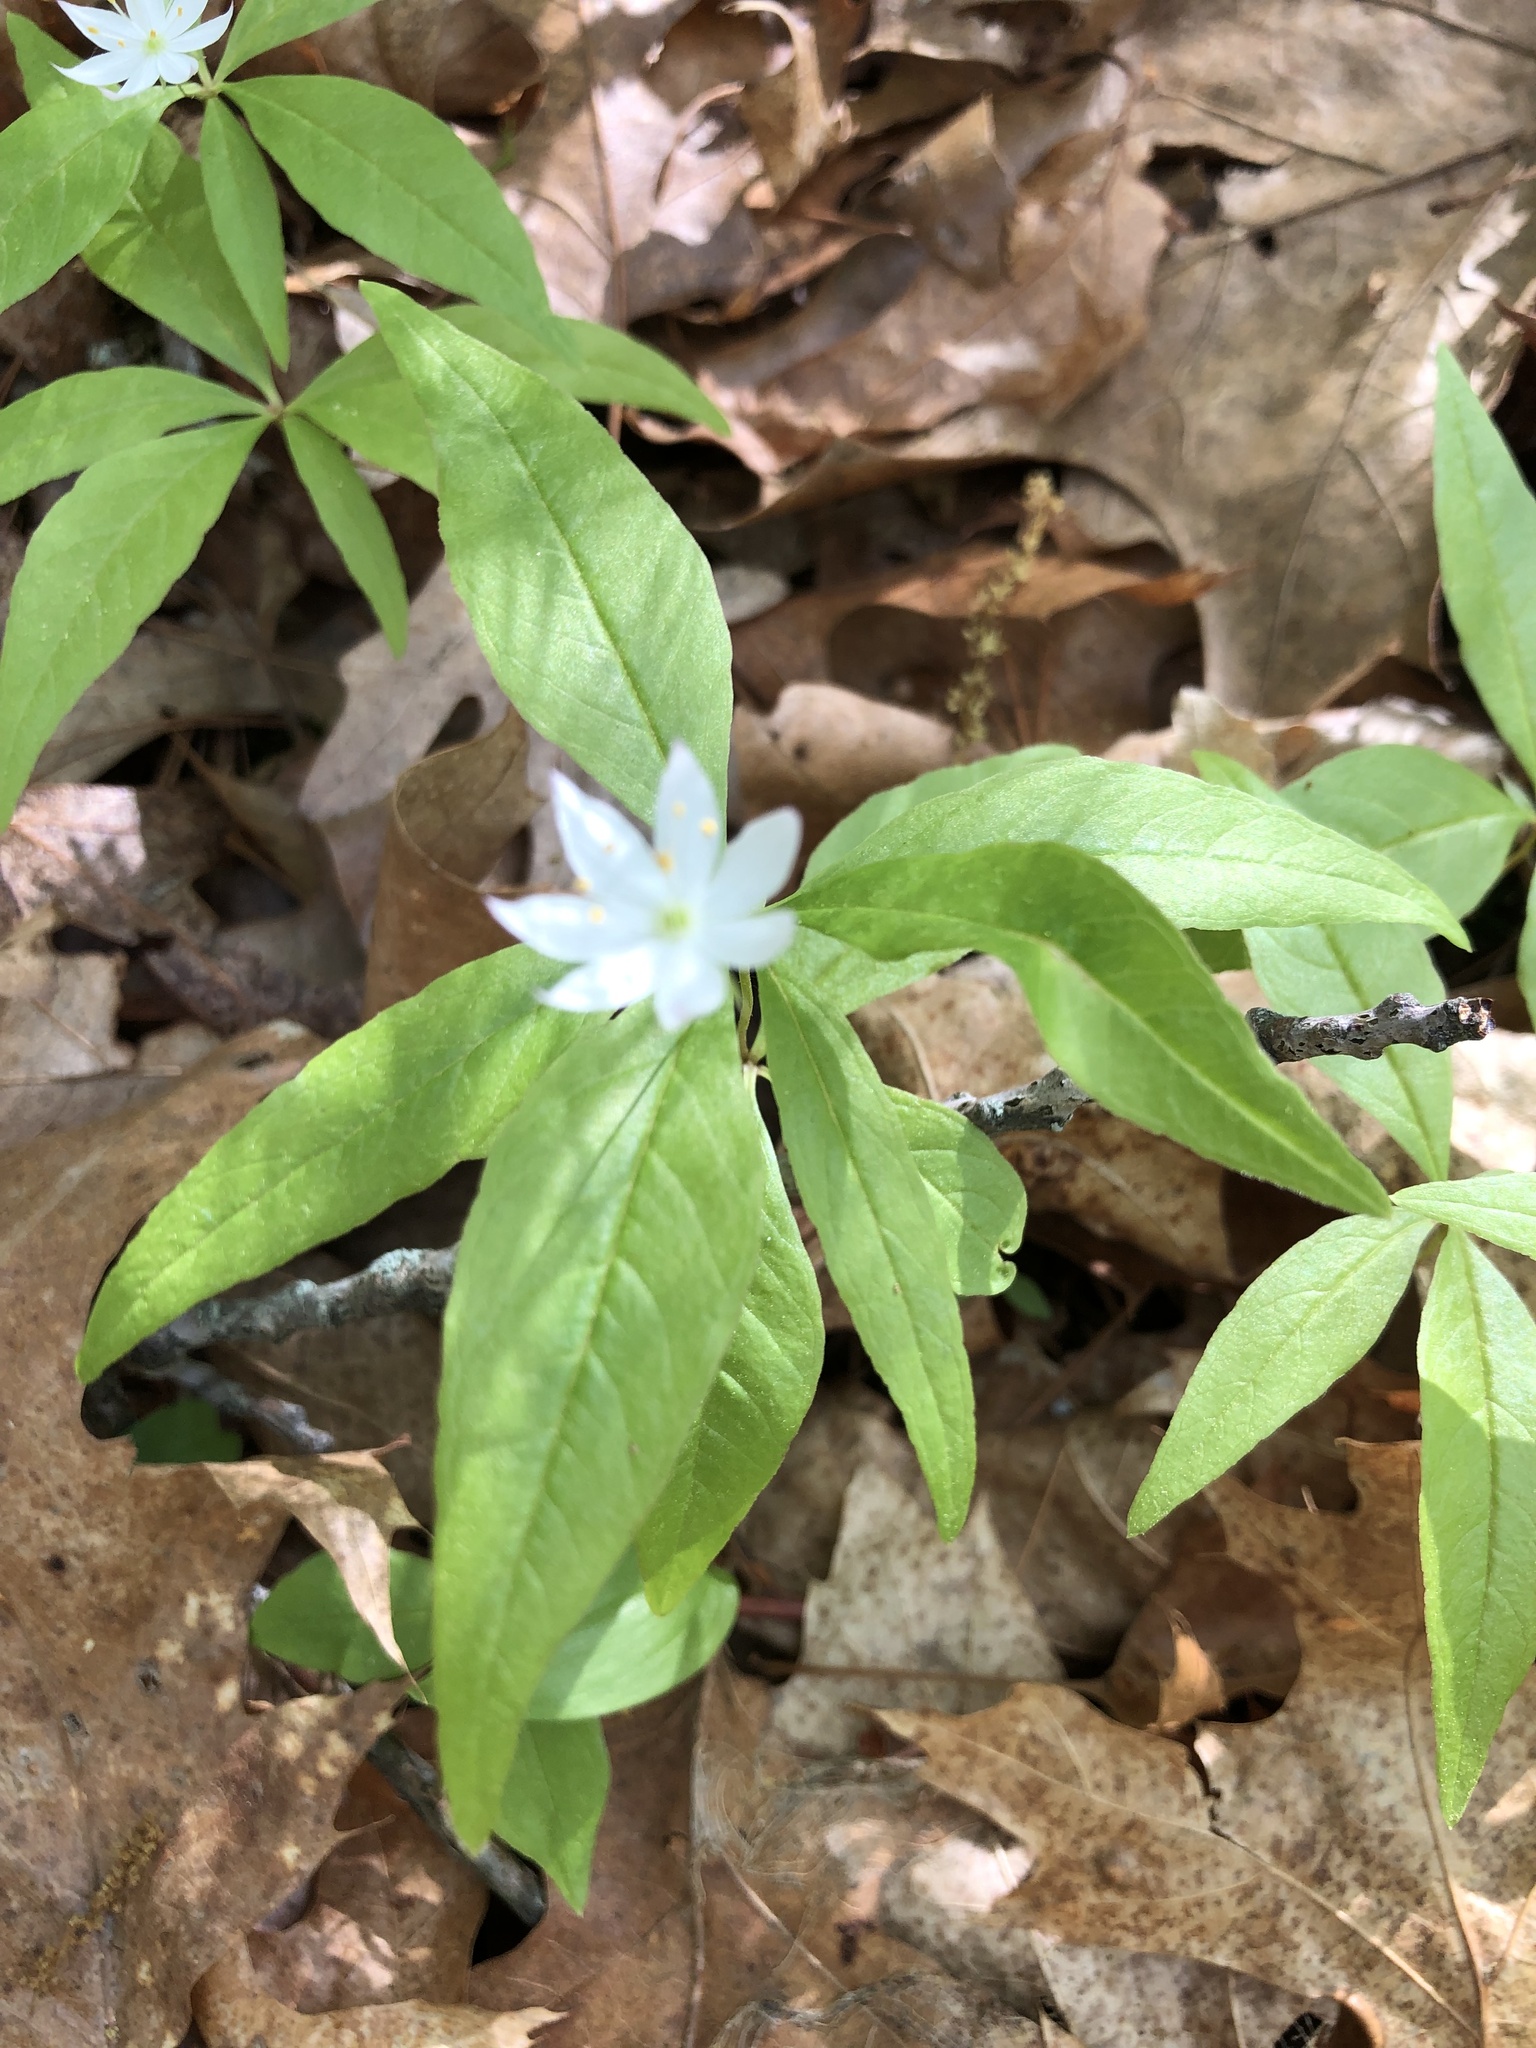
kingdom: Plantae
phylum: Tracheophyta
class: Magnoliopsida
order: Ericales
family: Primulaceae
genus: Lysimachia
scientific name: Lysimachia borealis
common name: American starflower
